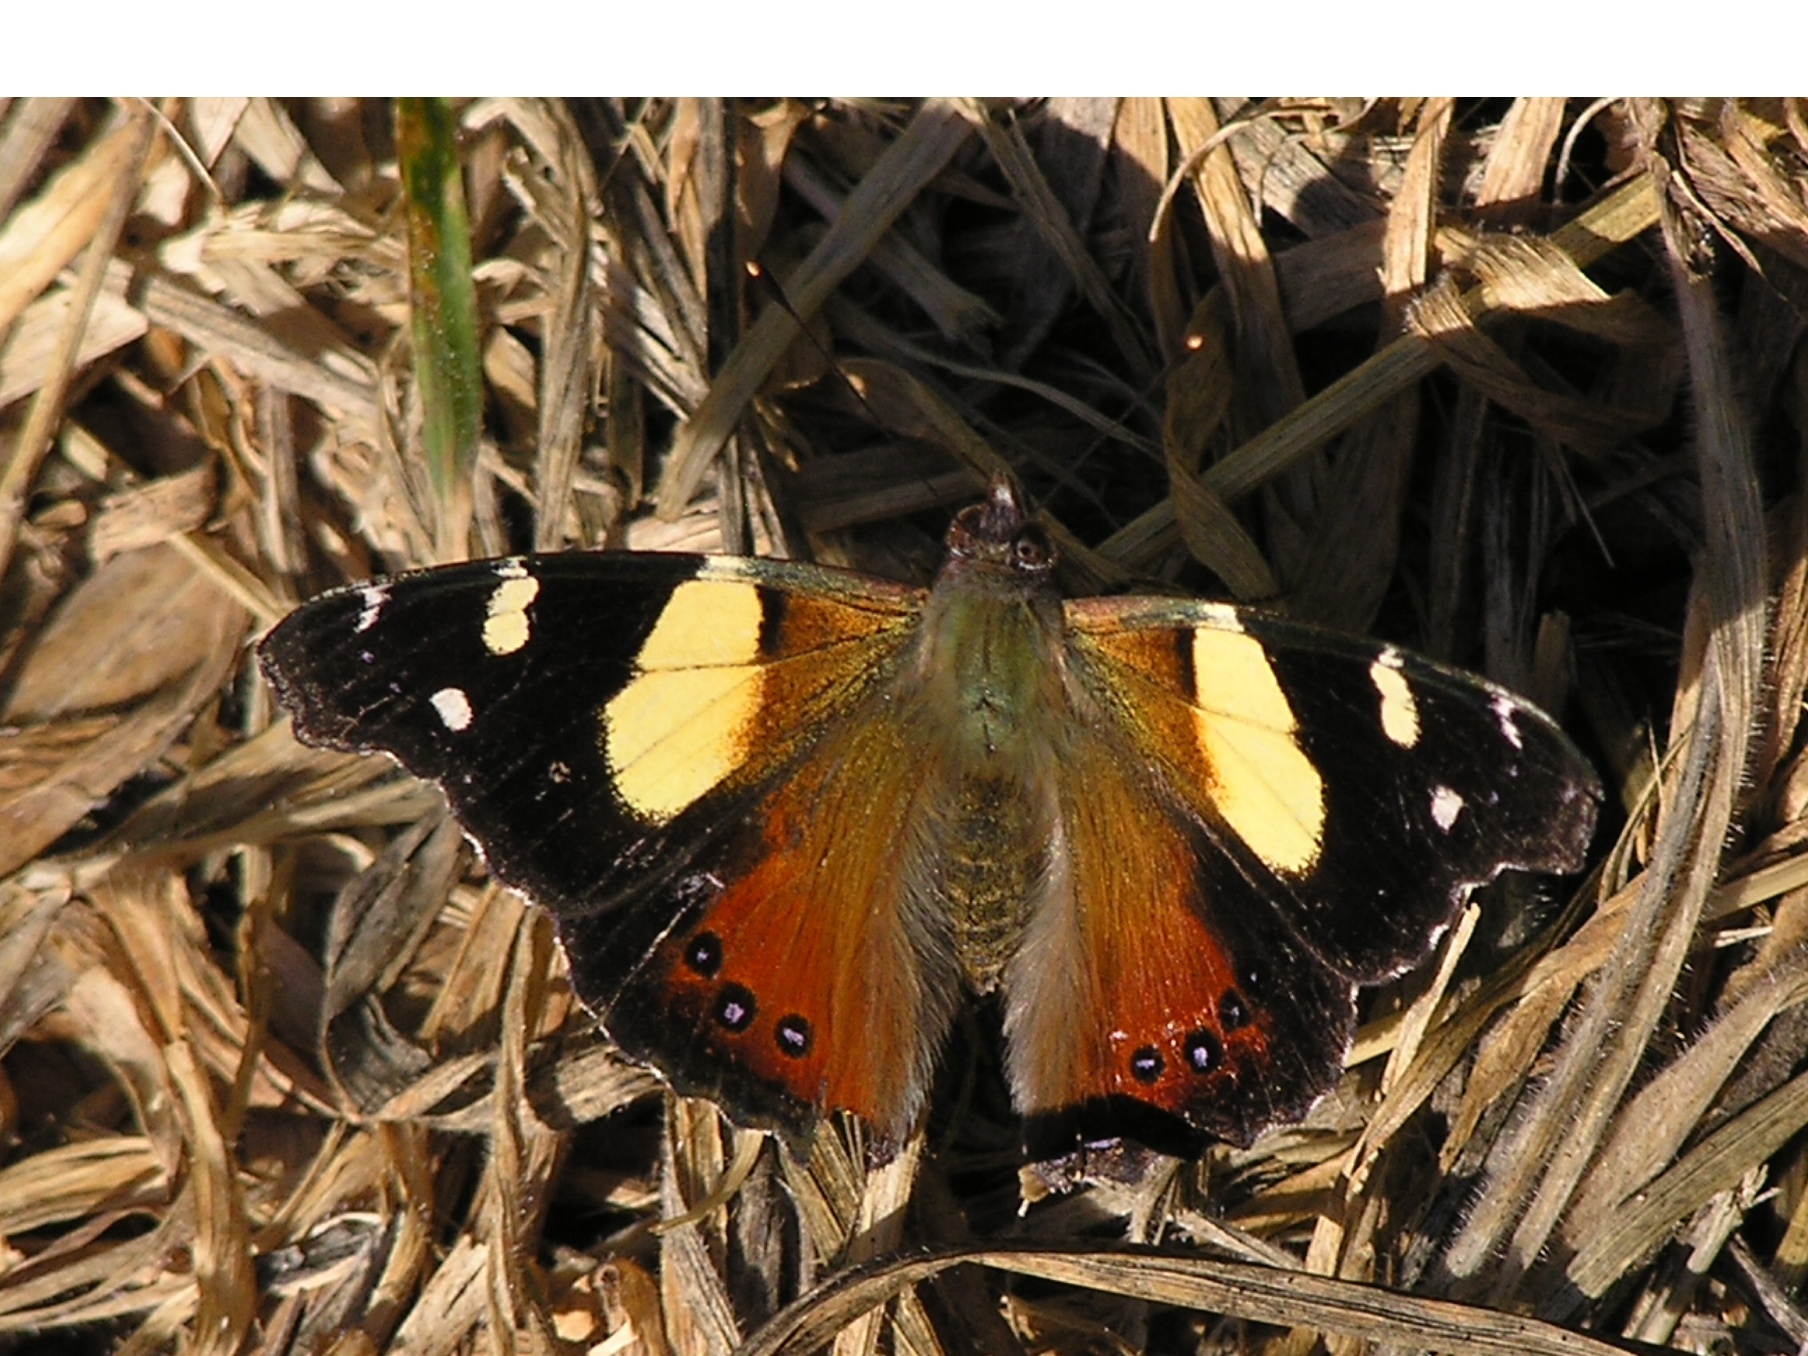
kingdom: Animalia
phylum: Arthropoda
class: Insecta
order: Lepidoptera
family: Nymphalidae
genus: Vanessa
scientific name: Vanessa itea
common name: Yellow admiral
